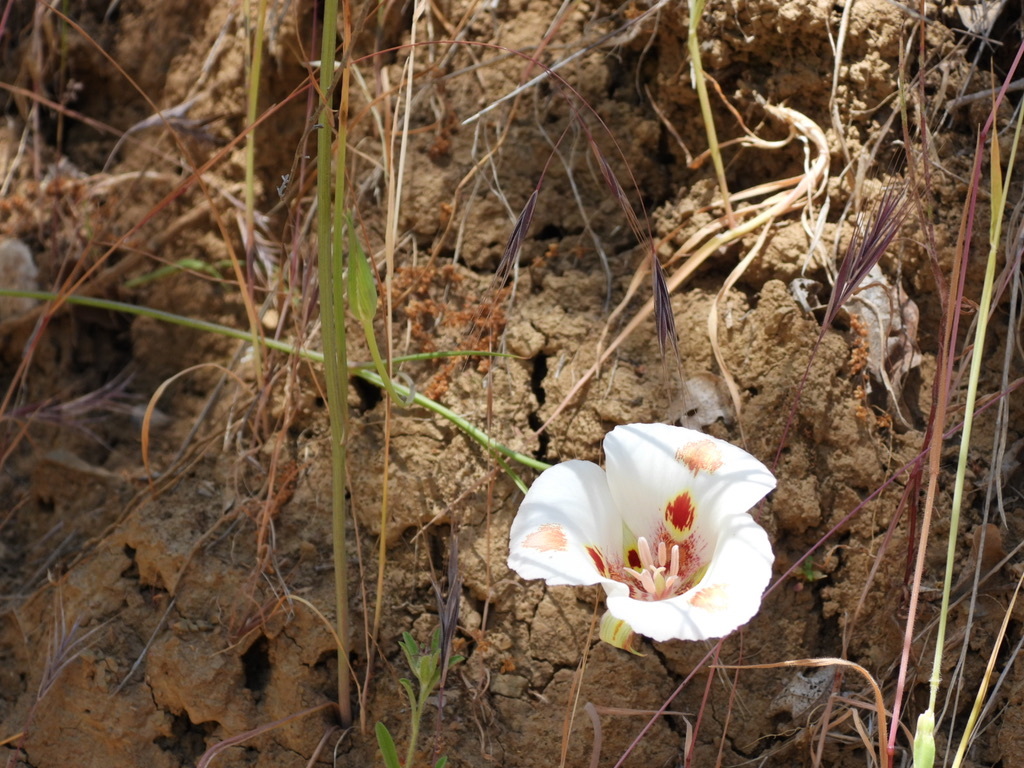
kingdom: Plantae
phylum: Tracheophyta
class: Liliopsida
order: Liliales
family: Liliaceae
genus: Calochortus
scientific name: Calochortus venustus
